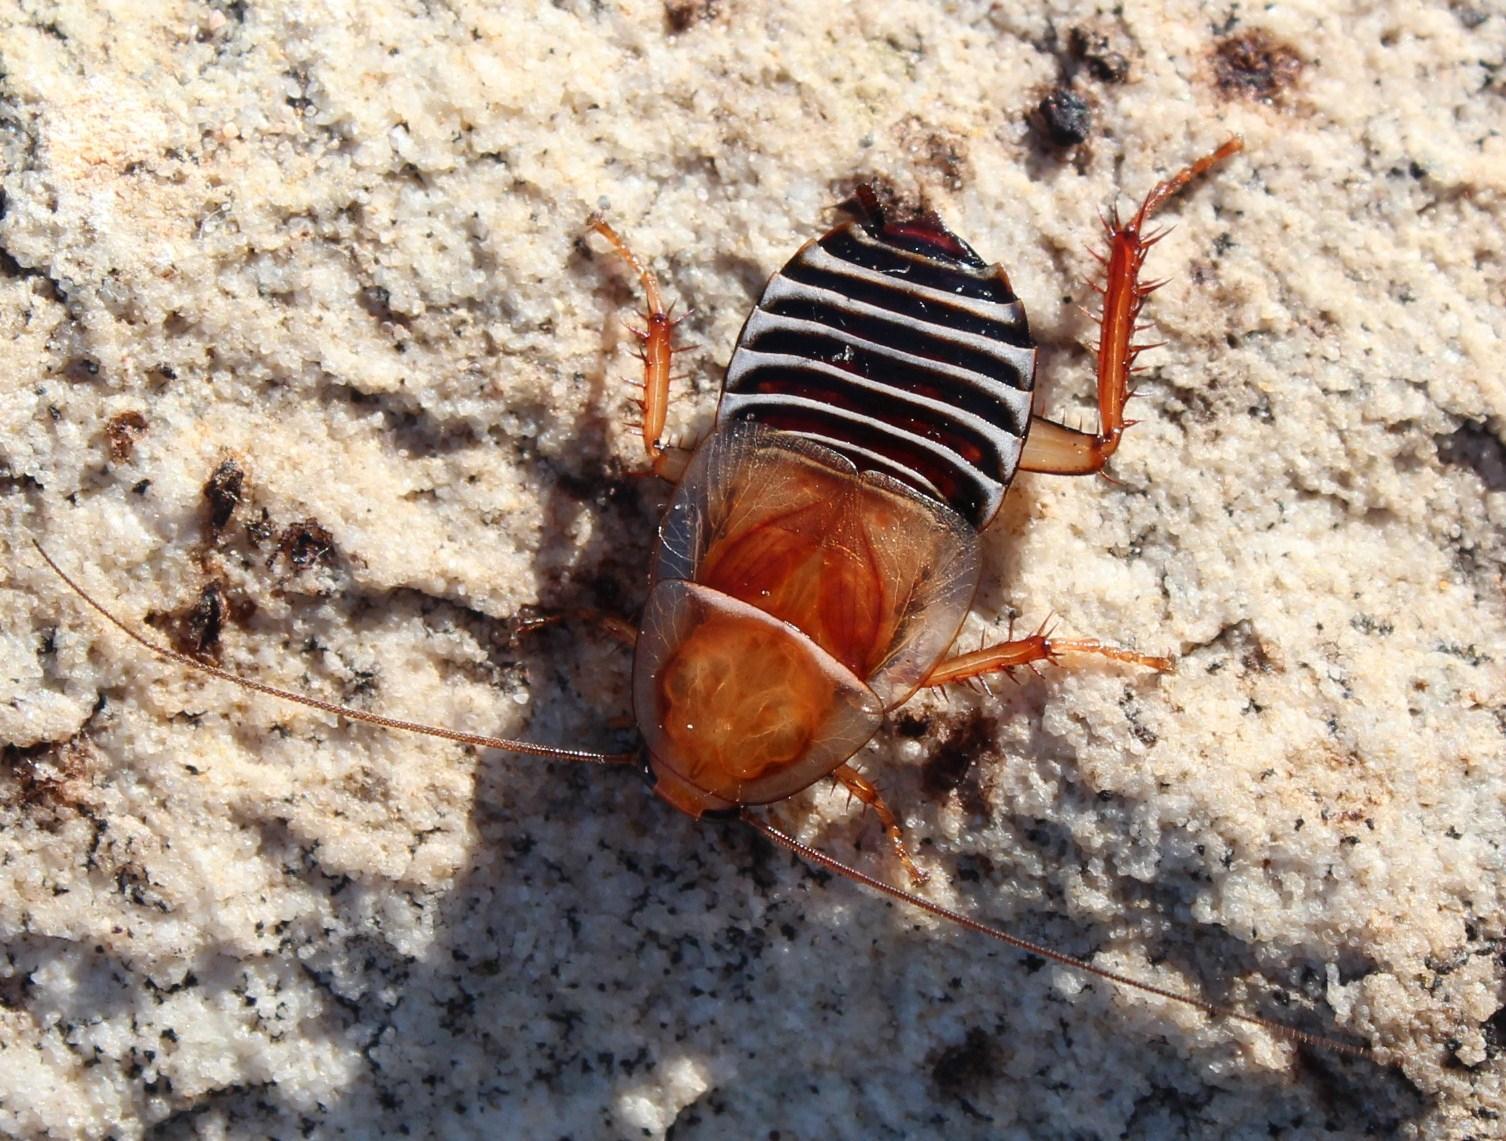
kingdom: Animalia
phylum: Arthropoda
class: Insecta
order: Blattodea
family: Ectobiidae
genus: Temnopteryx
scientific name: Temnopteryx phalerata
